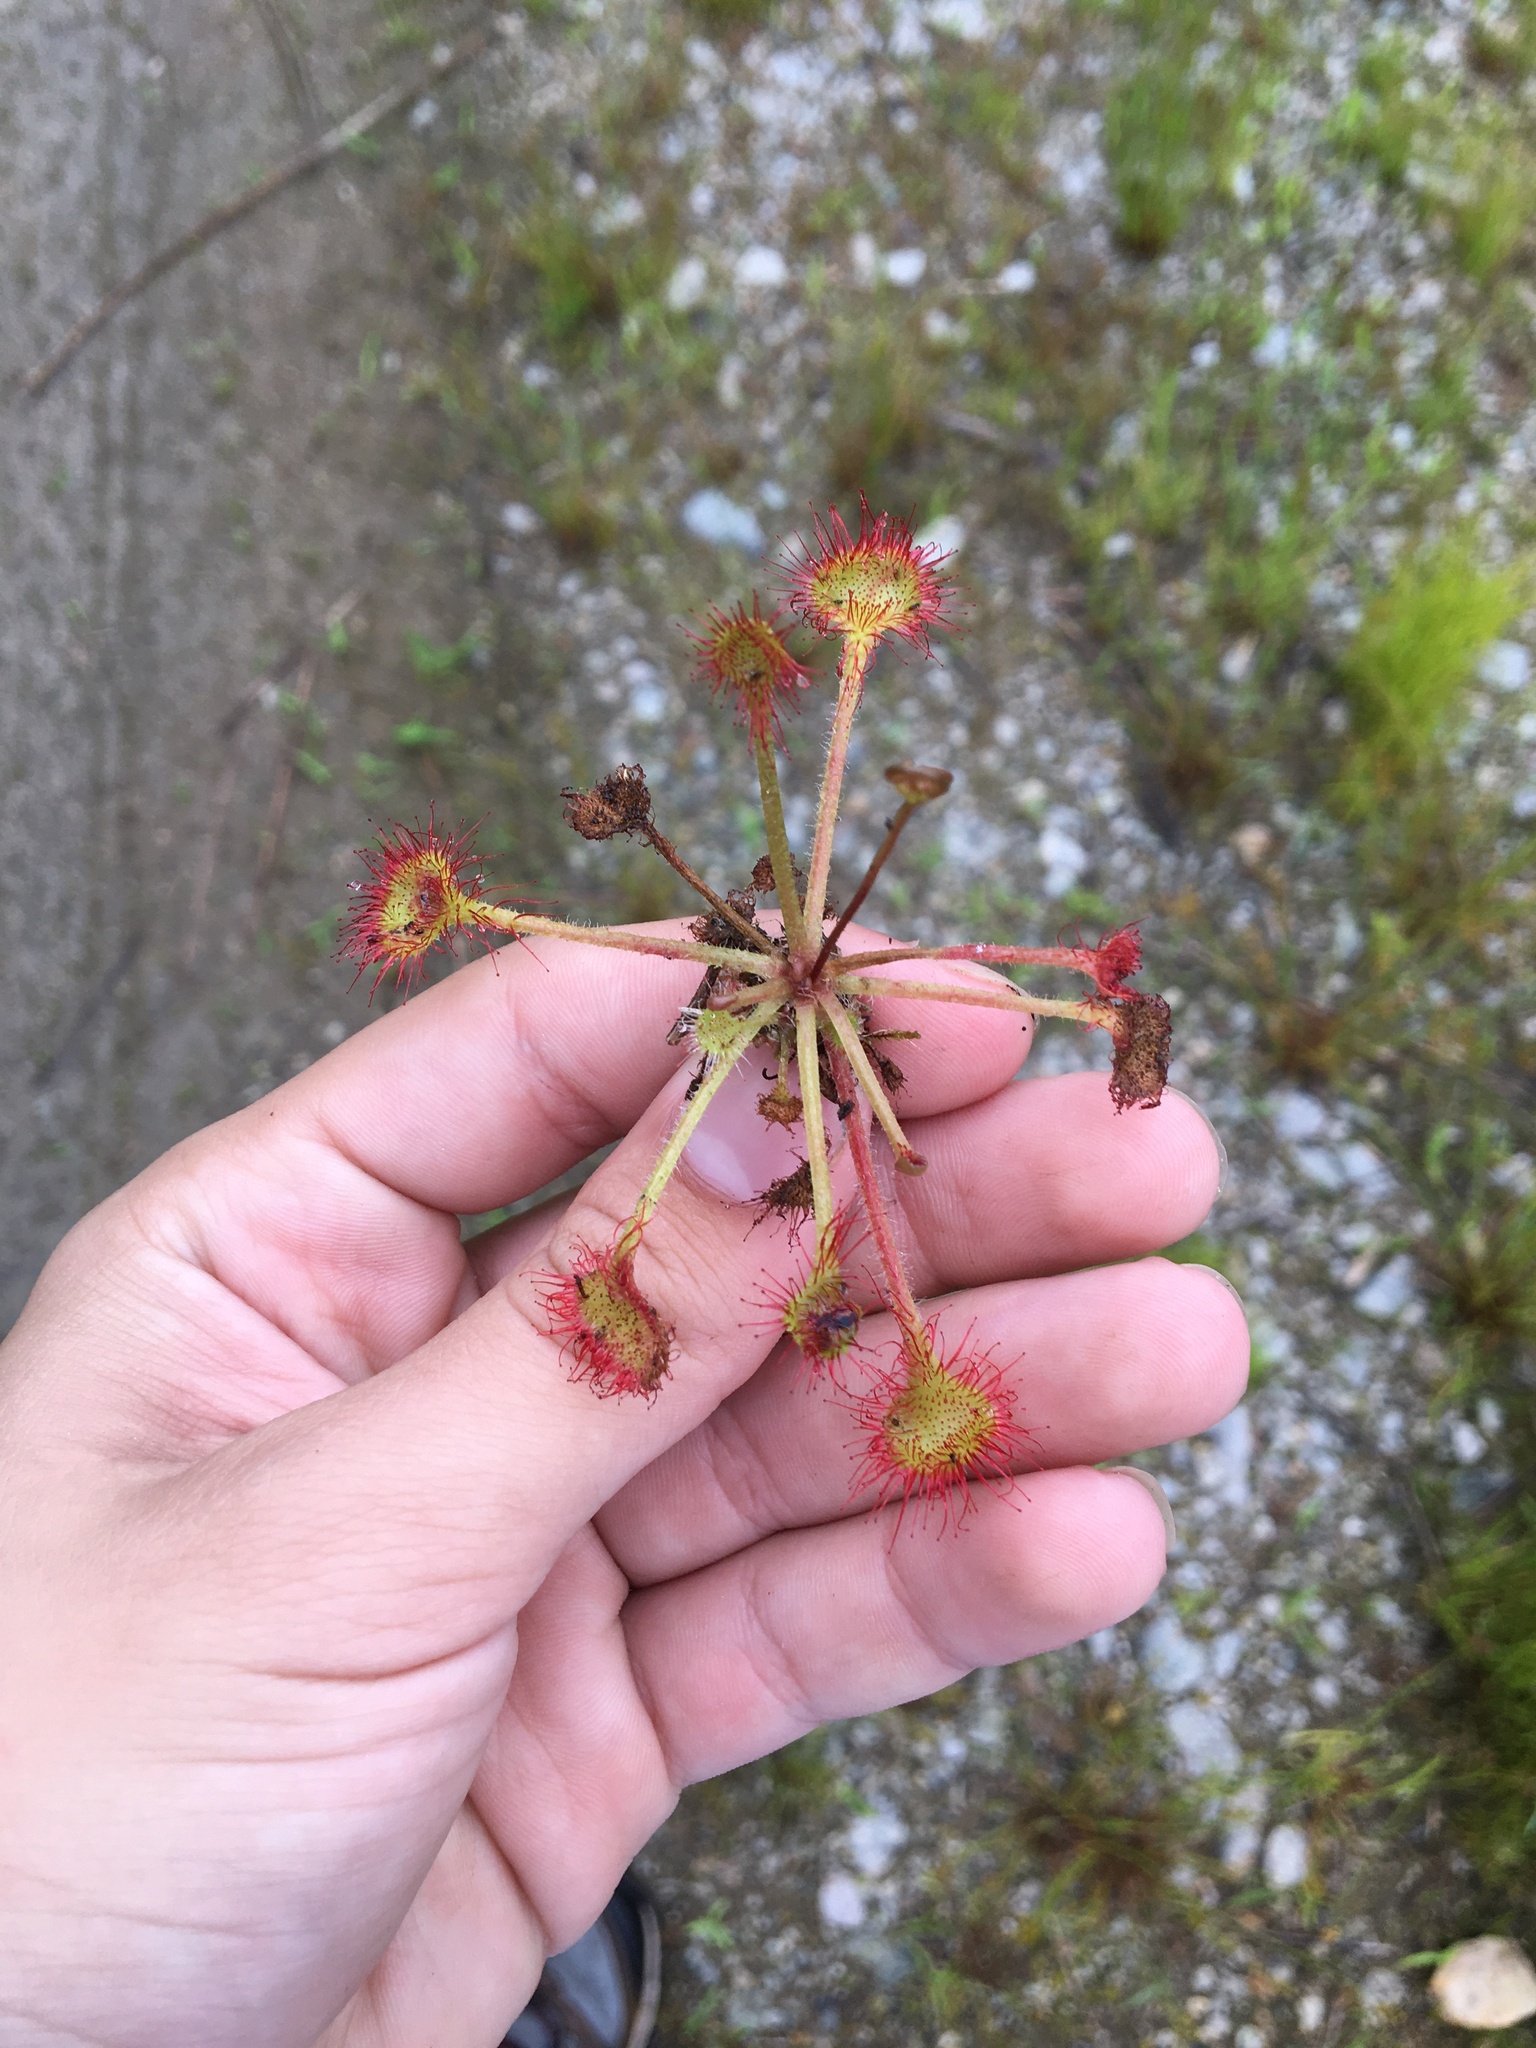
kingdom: Plantae
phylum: Tracheophyta
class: Magnoliopsida
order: Caryophyllales
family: Droseraceae
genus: Drosera
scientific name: Drosera rotundifolia
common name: Round-leaved sundew
